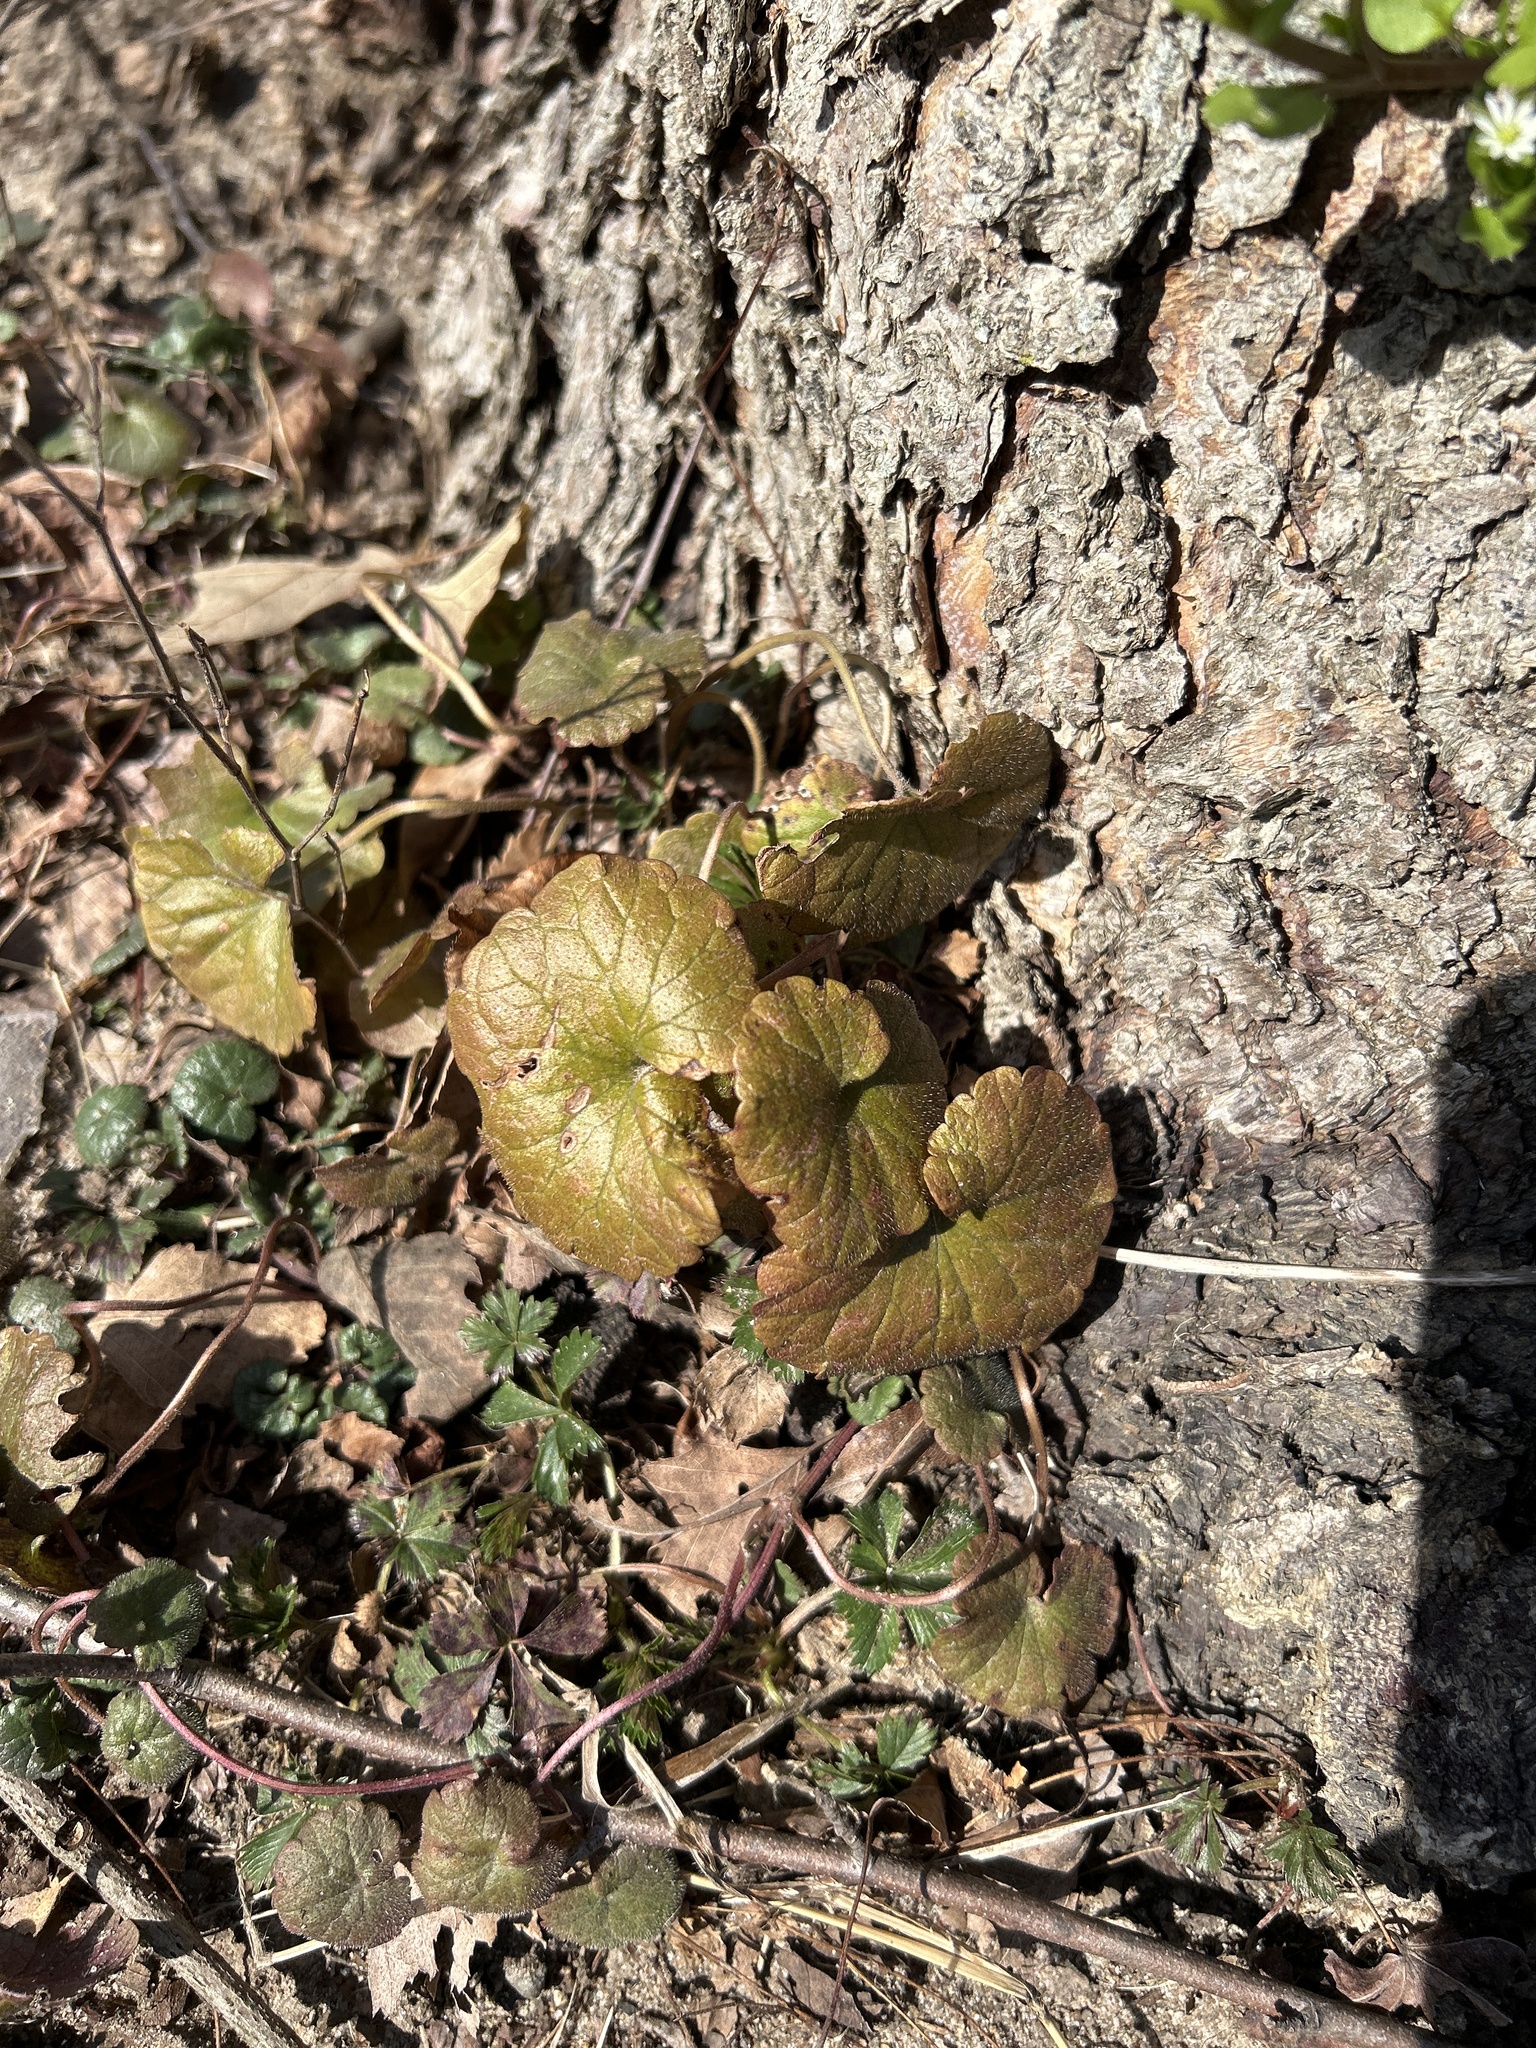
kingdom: Plantae
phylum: Tracheophyta
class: Magnoliopsida
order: Lamiales
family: Lamiaceae
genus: Glechoma
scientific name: Glechoma hederacea
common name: Ground ivy
